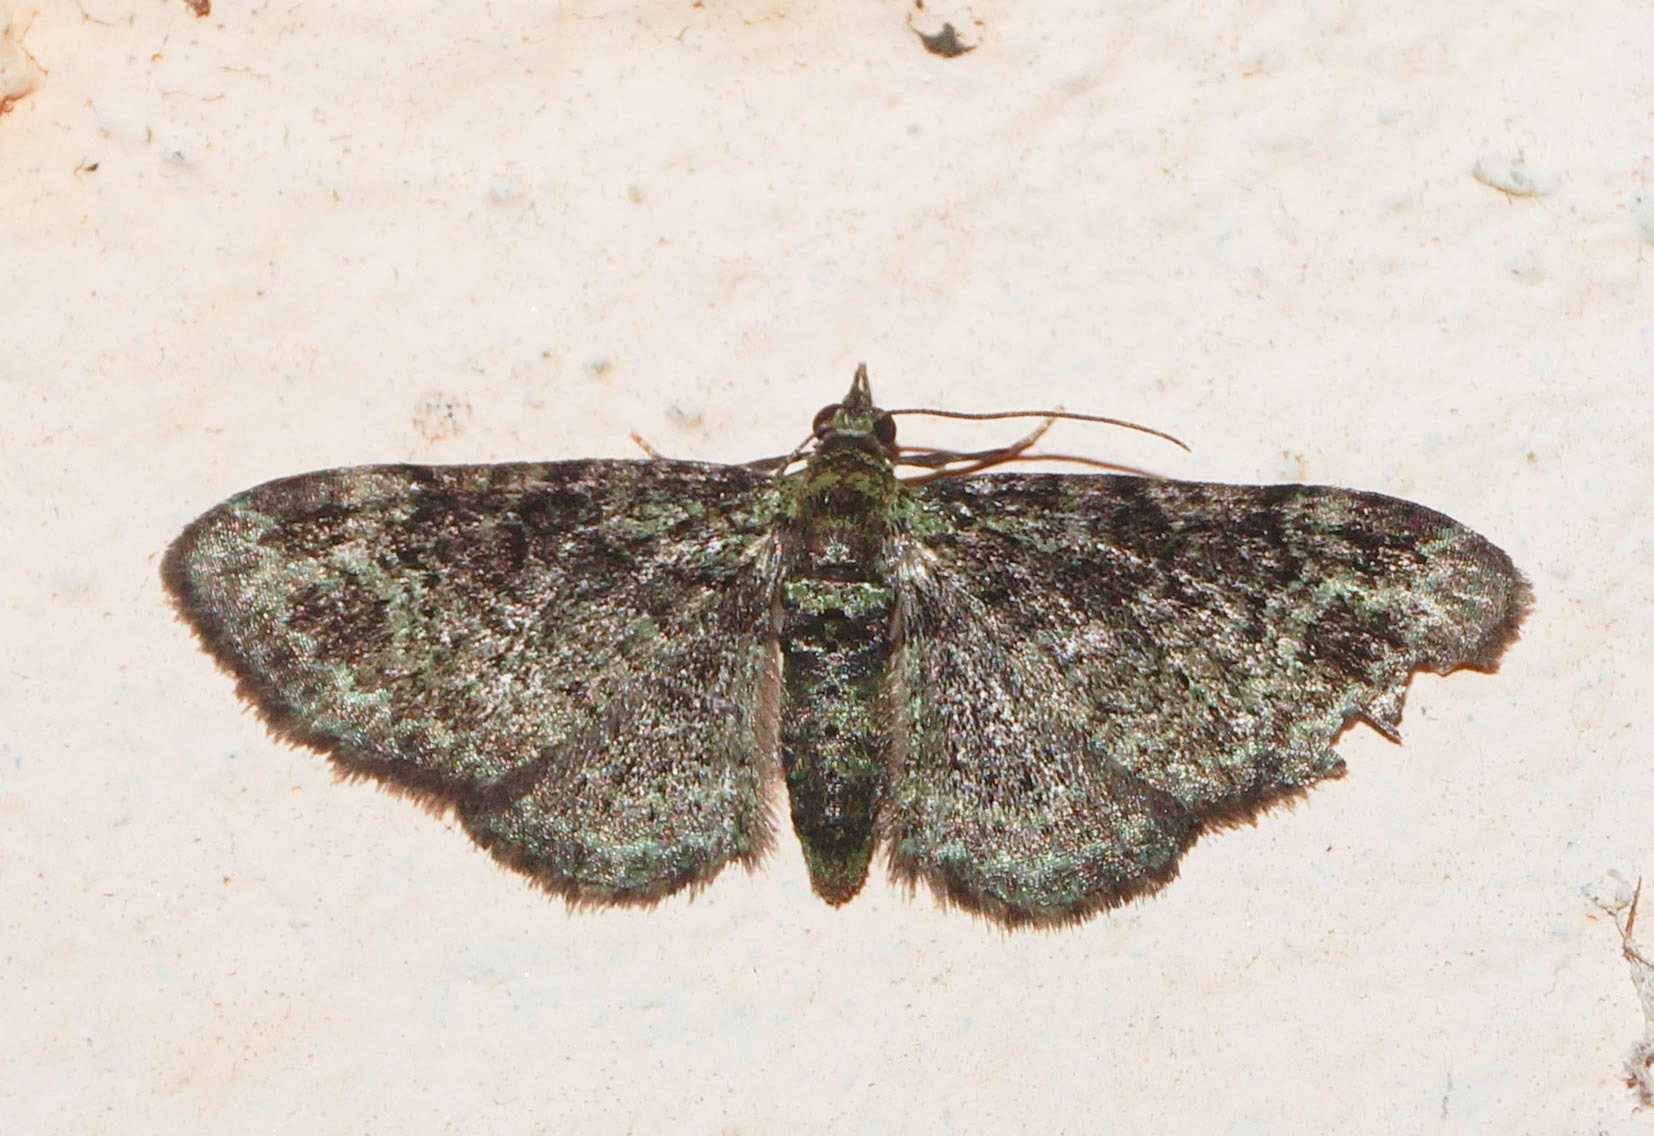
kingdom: Animalia
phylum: Arthropoda
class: Insecta
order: Lepidoptera
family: Geometridae
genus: Pasiphila
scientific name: Pasiphila rectangulata
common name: Green pug
